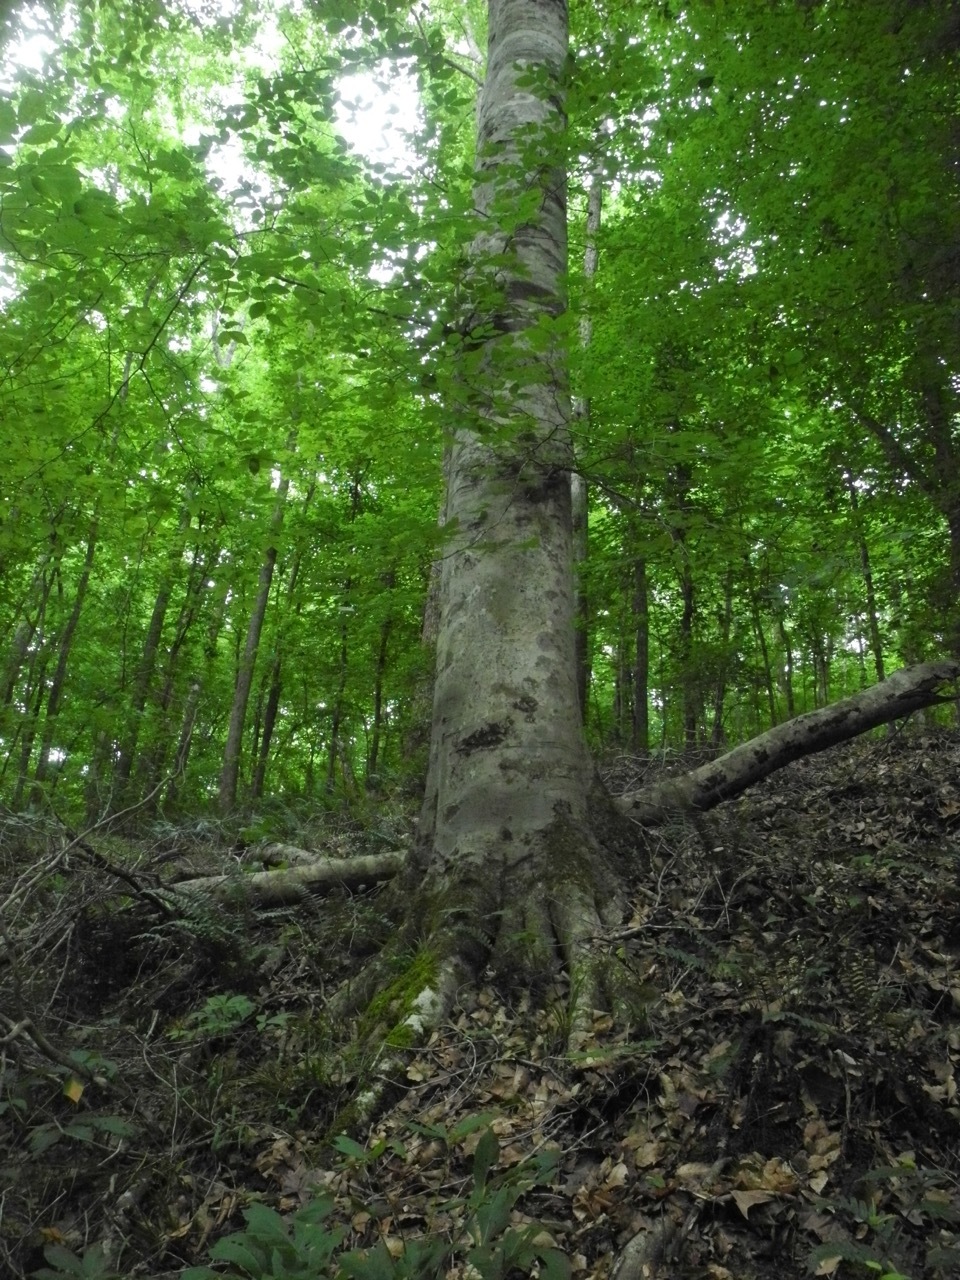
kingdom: Plantae
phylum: Tracheophyta
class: Magnoliopsida
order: Fagales
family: Fagaceae
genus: Fagus
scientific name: Fagus grandifolia
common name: American beech
